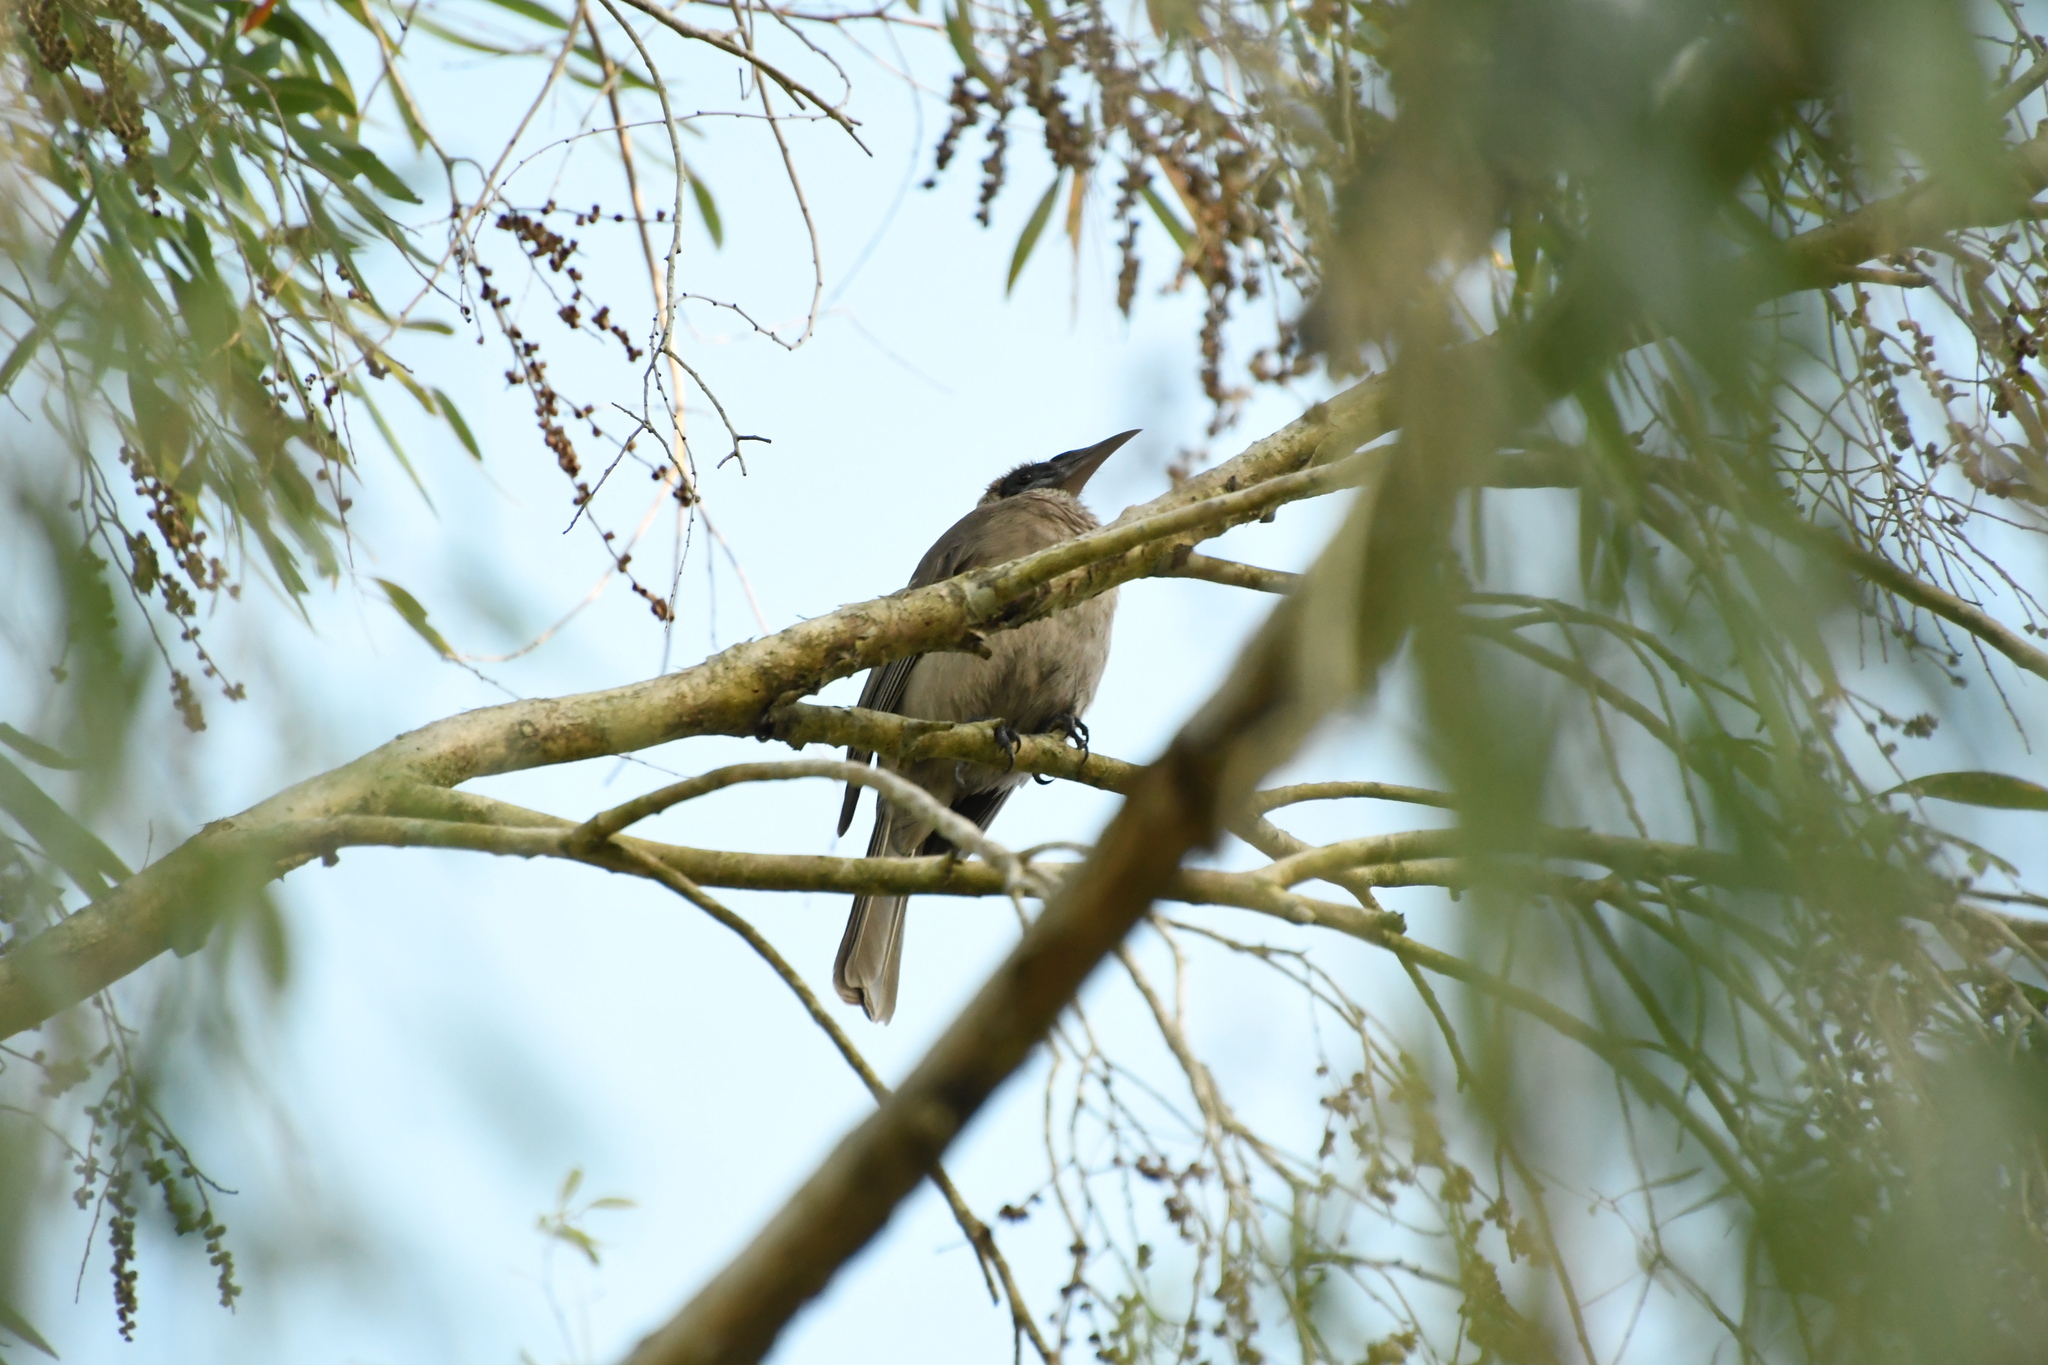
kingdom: Animalia
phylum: Chordata
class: Aves
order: Passeriformes
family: Meliphagidae
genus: Philemon
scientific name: Philemon buceroides
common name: Helmeted friarbird
